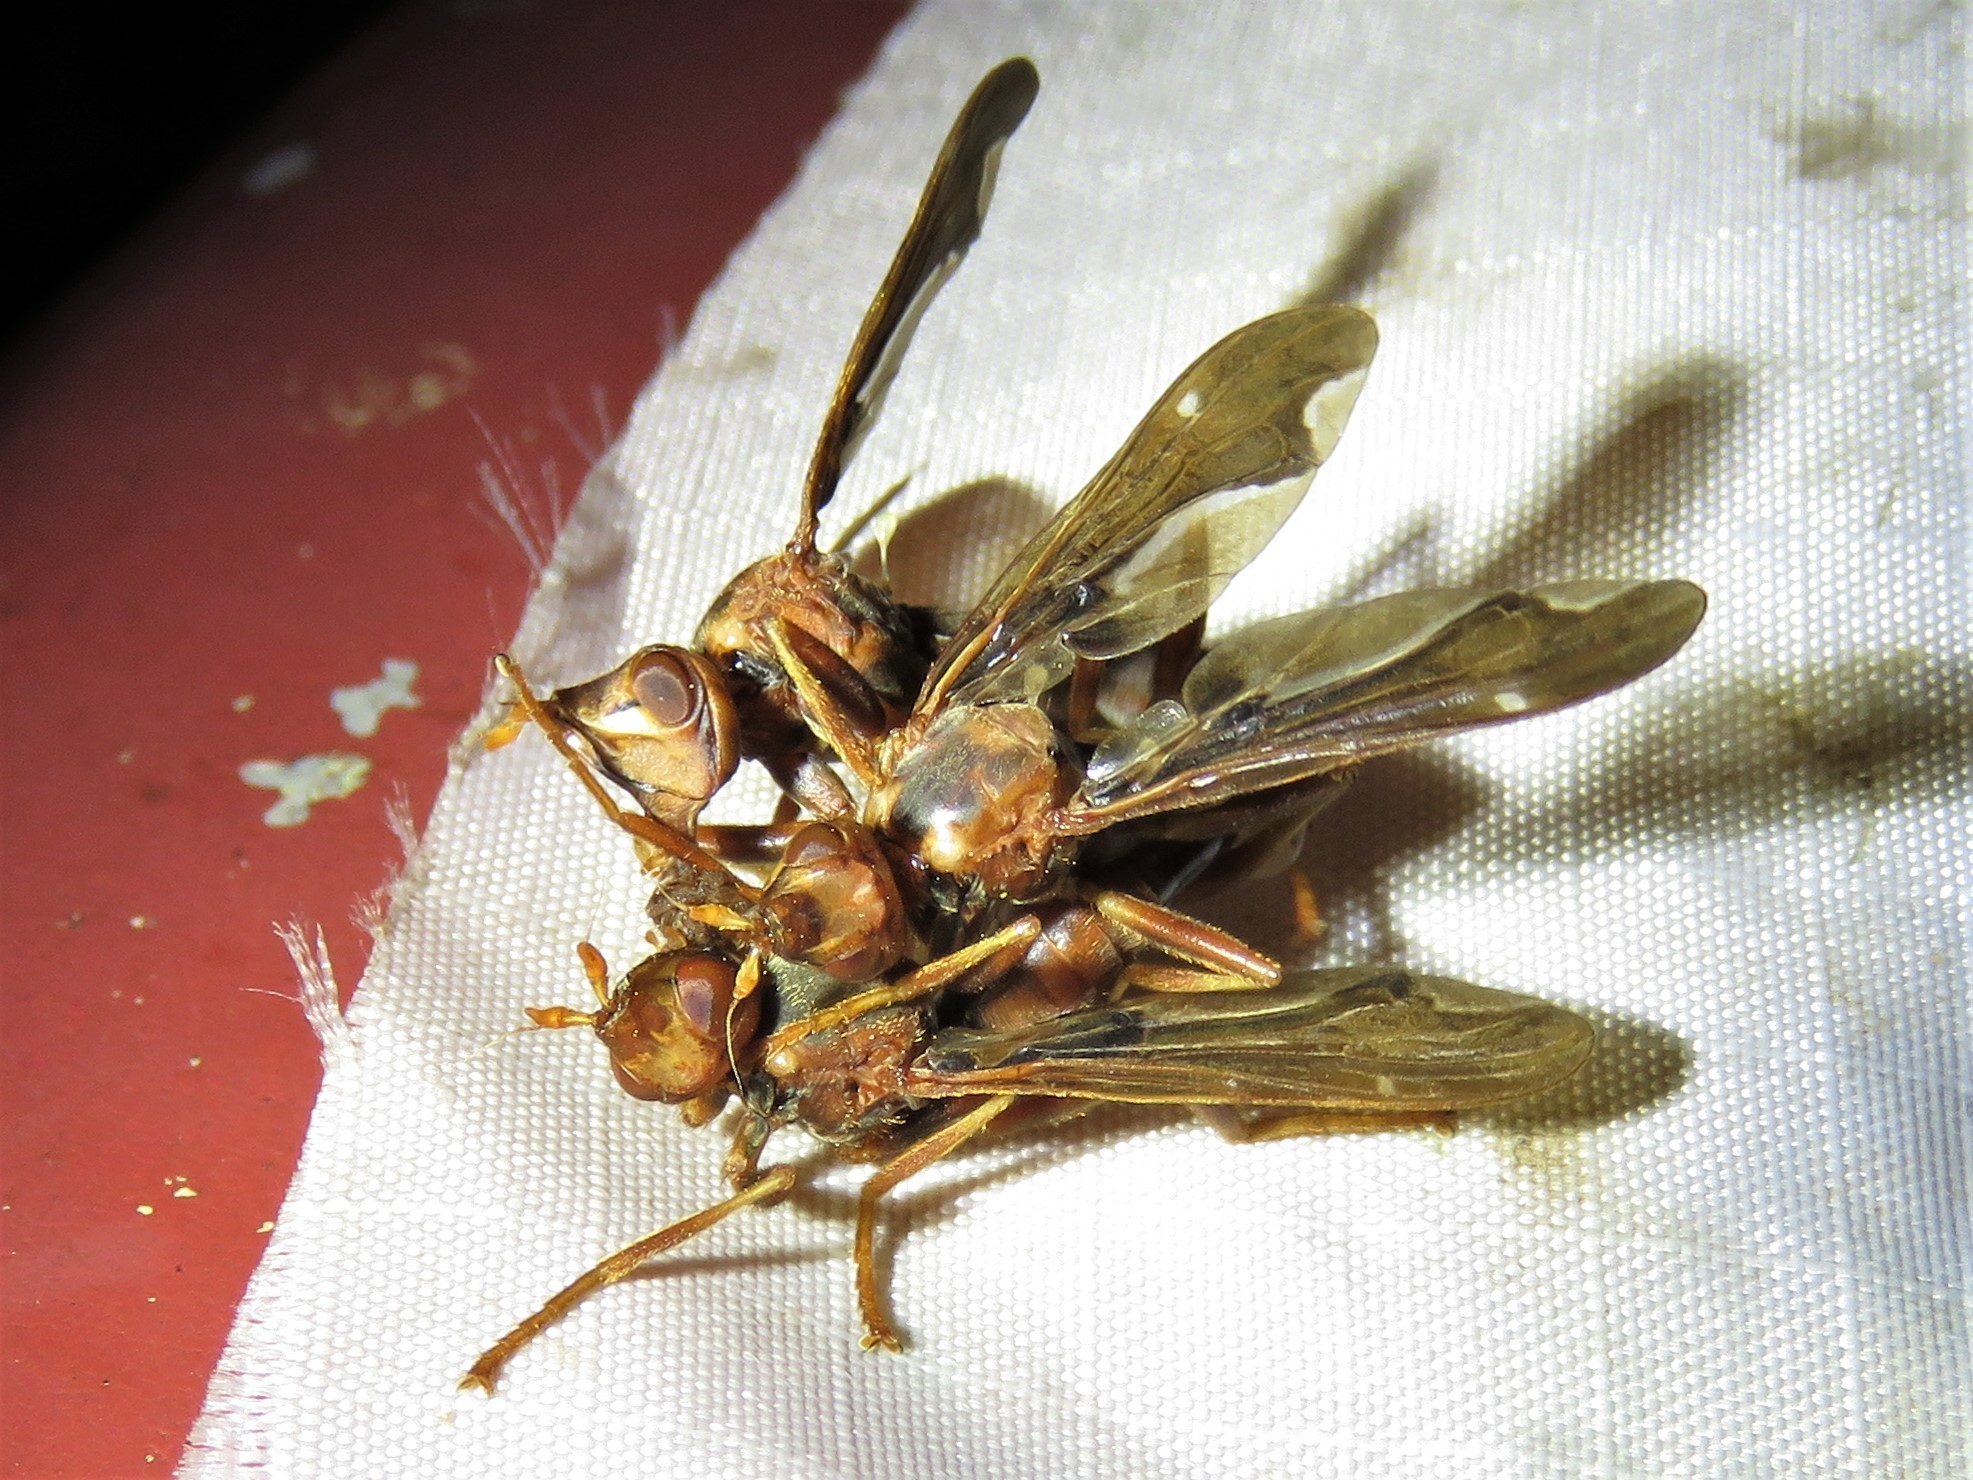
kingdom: Animalia
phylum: Arthropoda
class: Insecta
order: Diptera
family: Pyrgotidae
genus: Pyrgota
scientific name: Pyrgota undata
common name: Waved light fly
